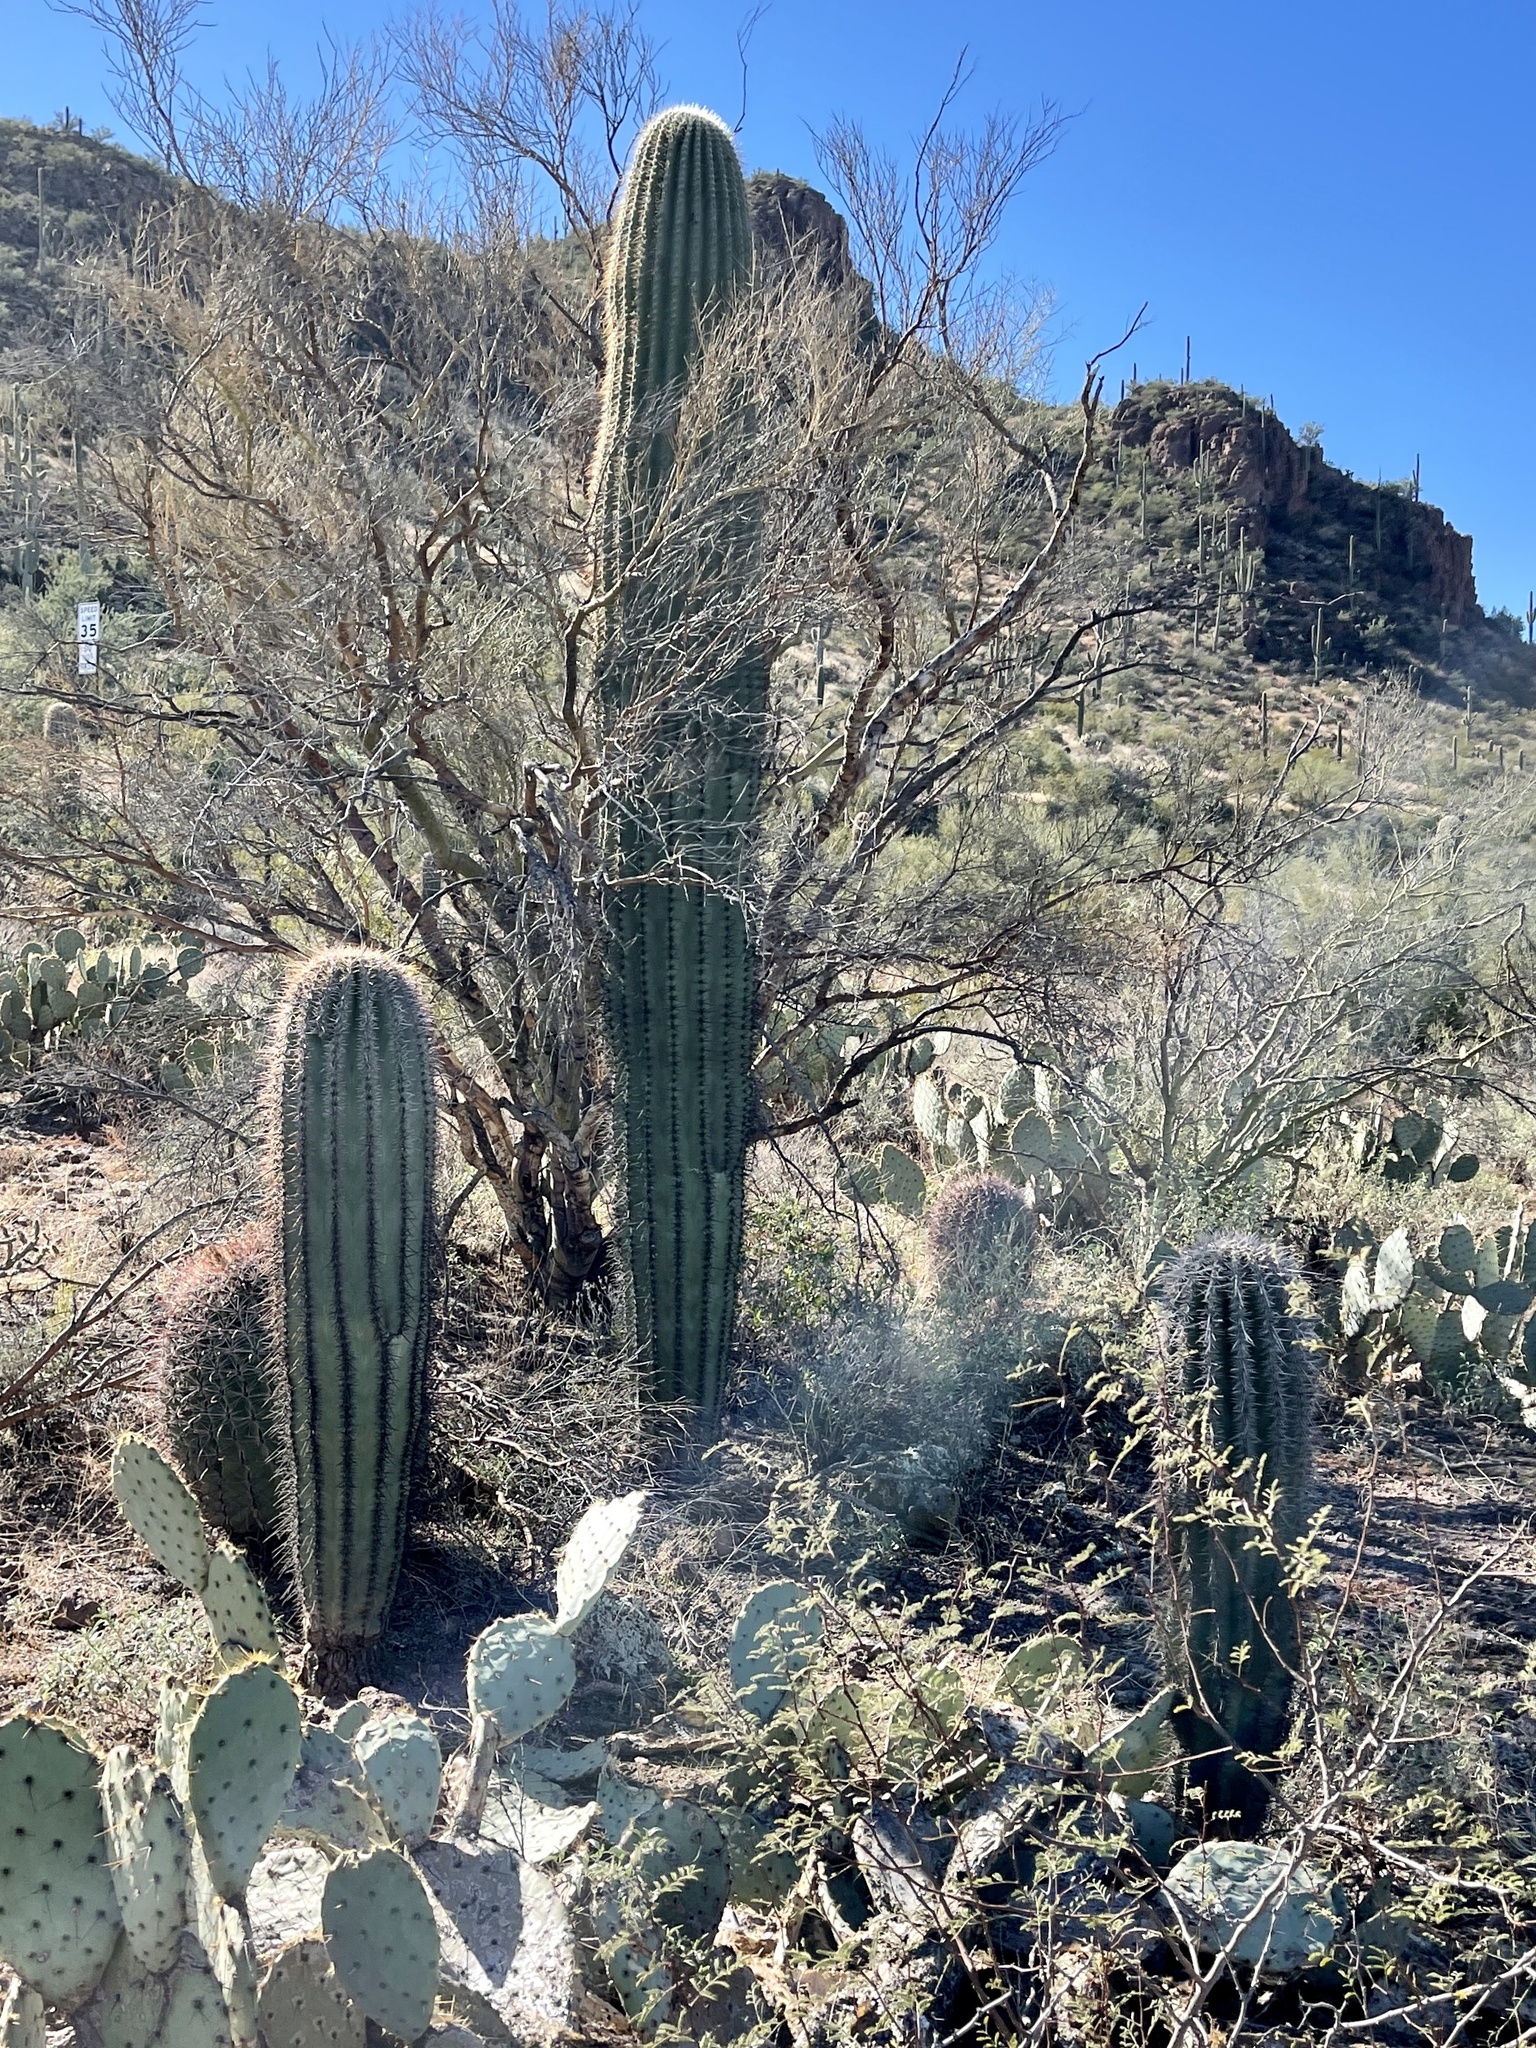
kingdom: Plantae
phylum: Tracheophyta
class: Magnoliopsida
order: Caryophyllales
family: Cactaceae
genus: Carnegiea
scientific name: Carnegiea gigantea
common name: Saguaro
